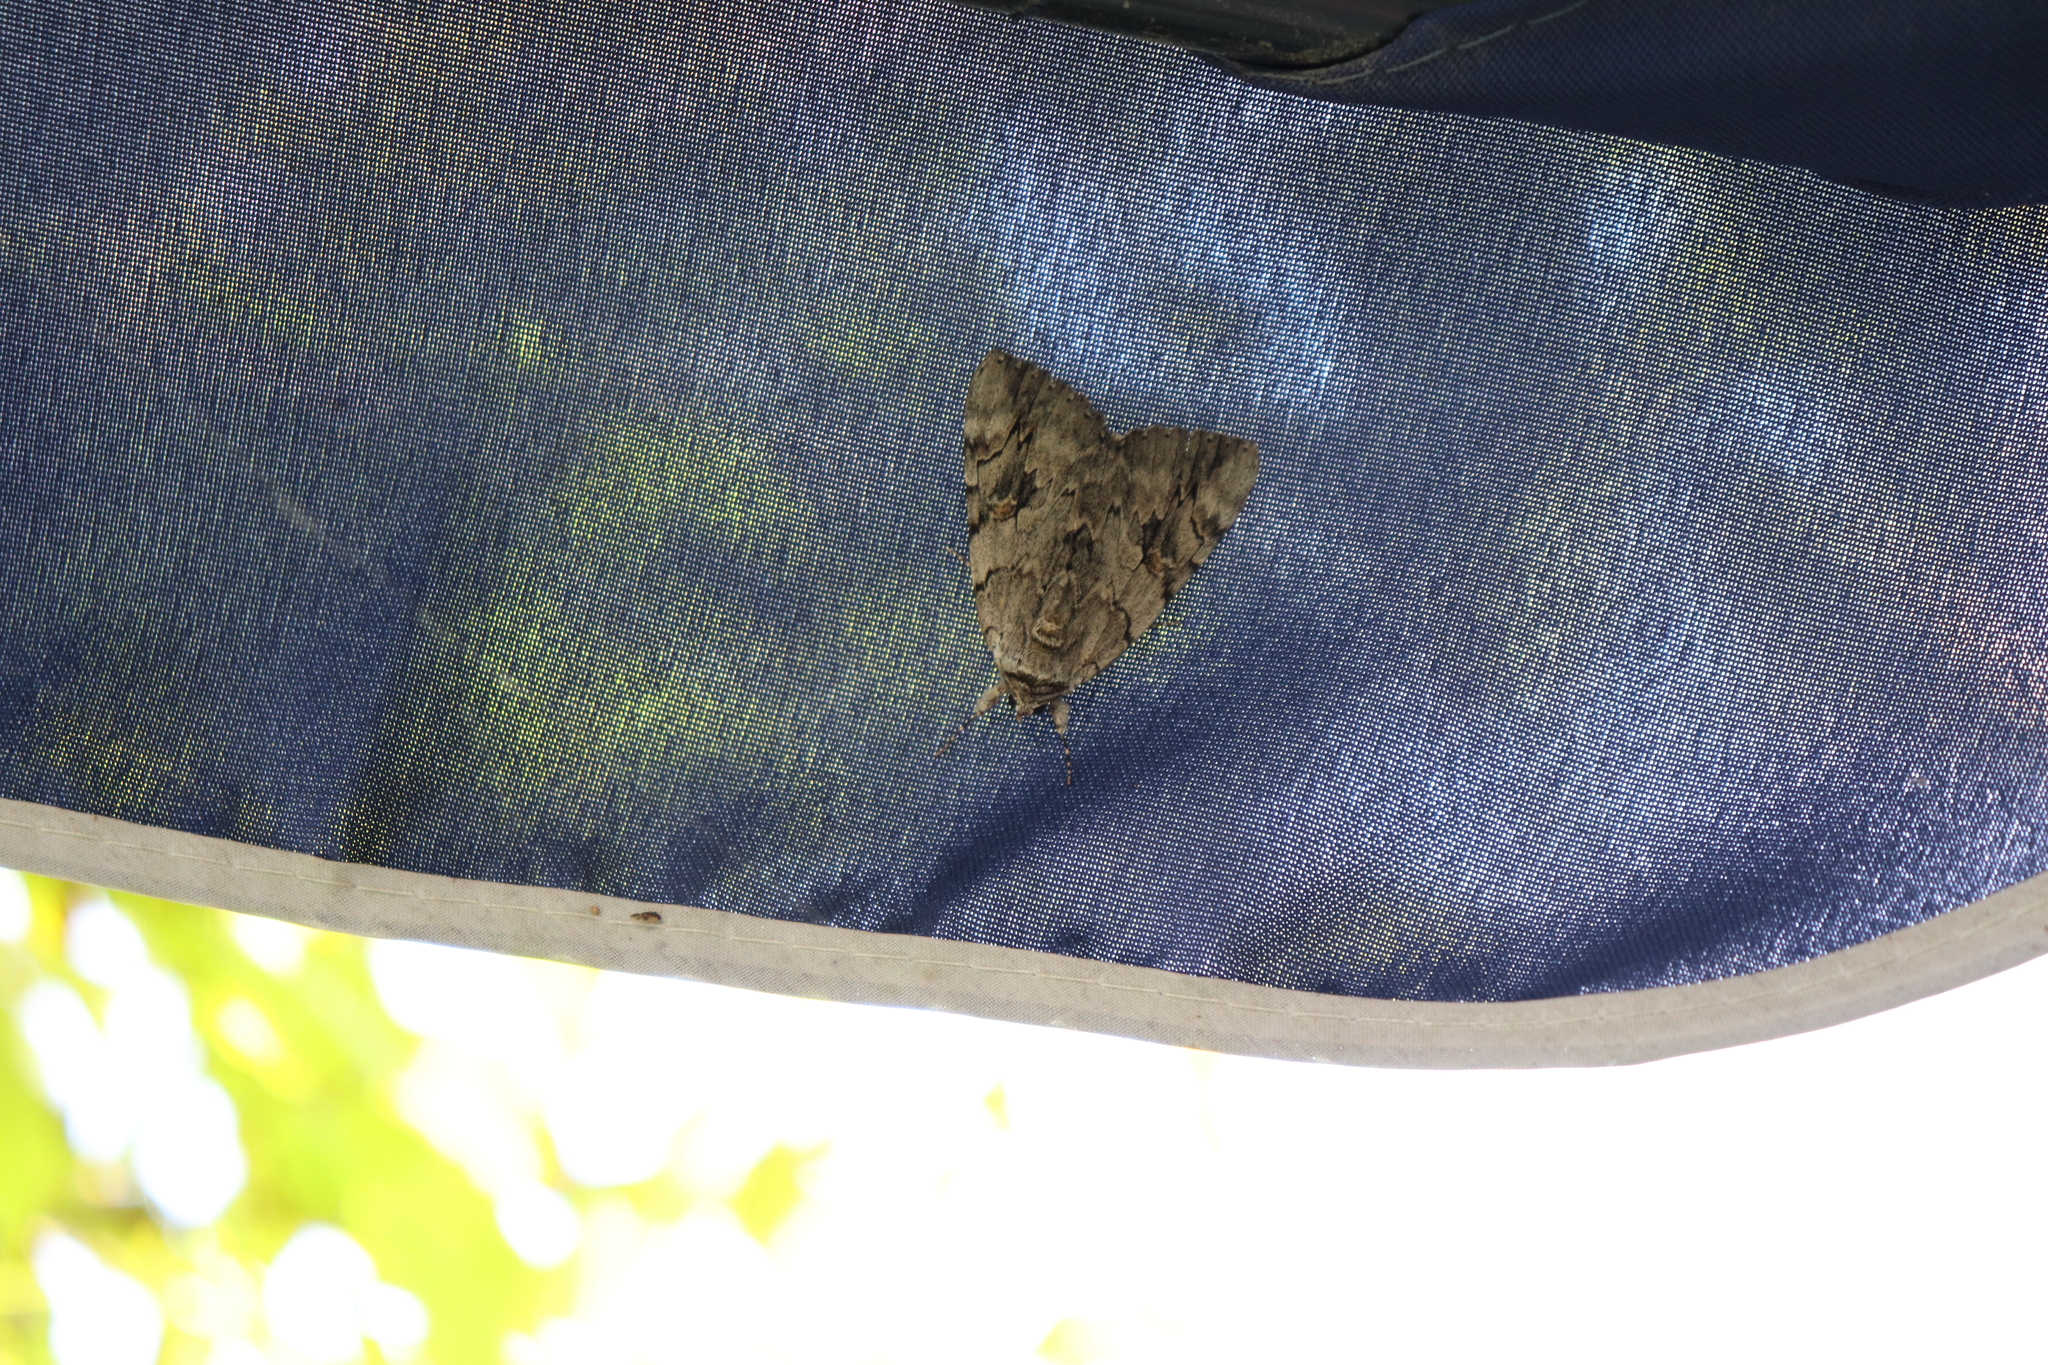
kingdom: Animalia
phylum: Arthropoda
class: Insecta
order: Lepidoptera
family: Erebidae
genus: Catocala
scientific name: Catocala electa
